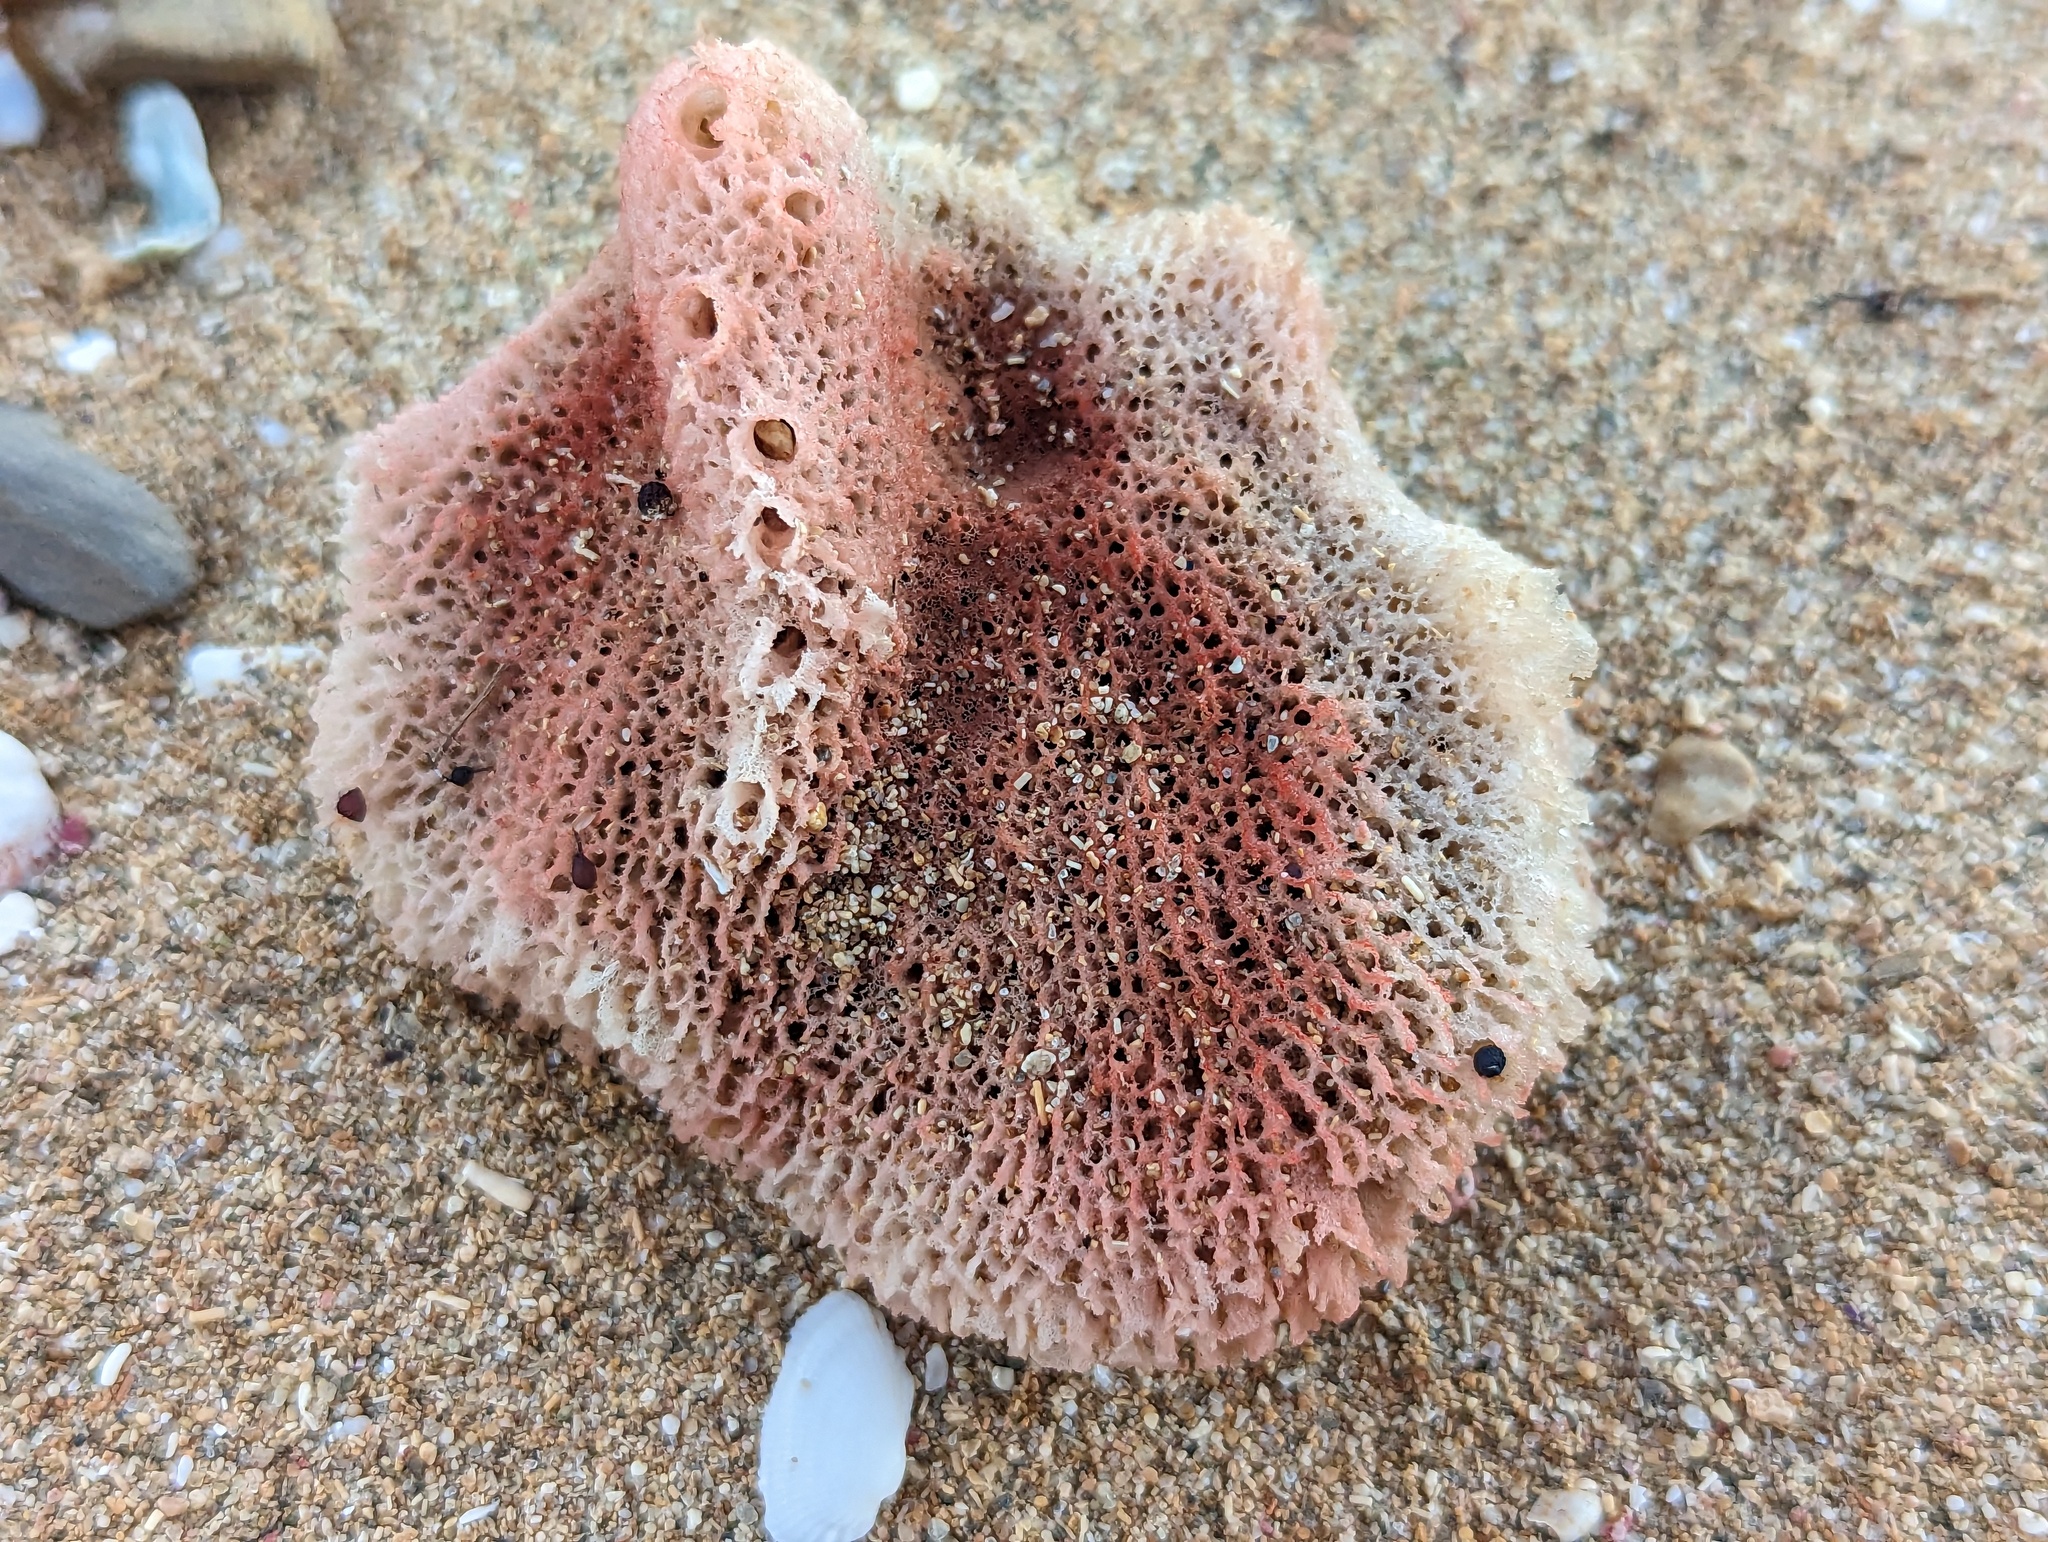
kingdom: Animalia
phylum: Porifera
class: Demospongiae
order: Haplosclerida
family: Niphatidae
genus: Amphimedon
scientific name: Amphimedon compressa
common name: Red sponge
